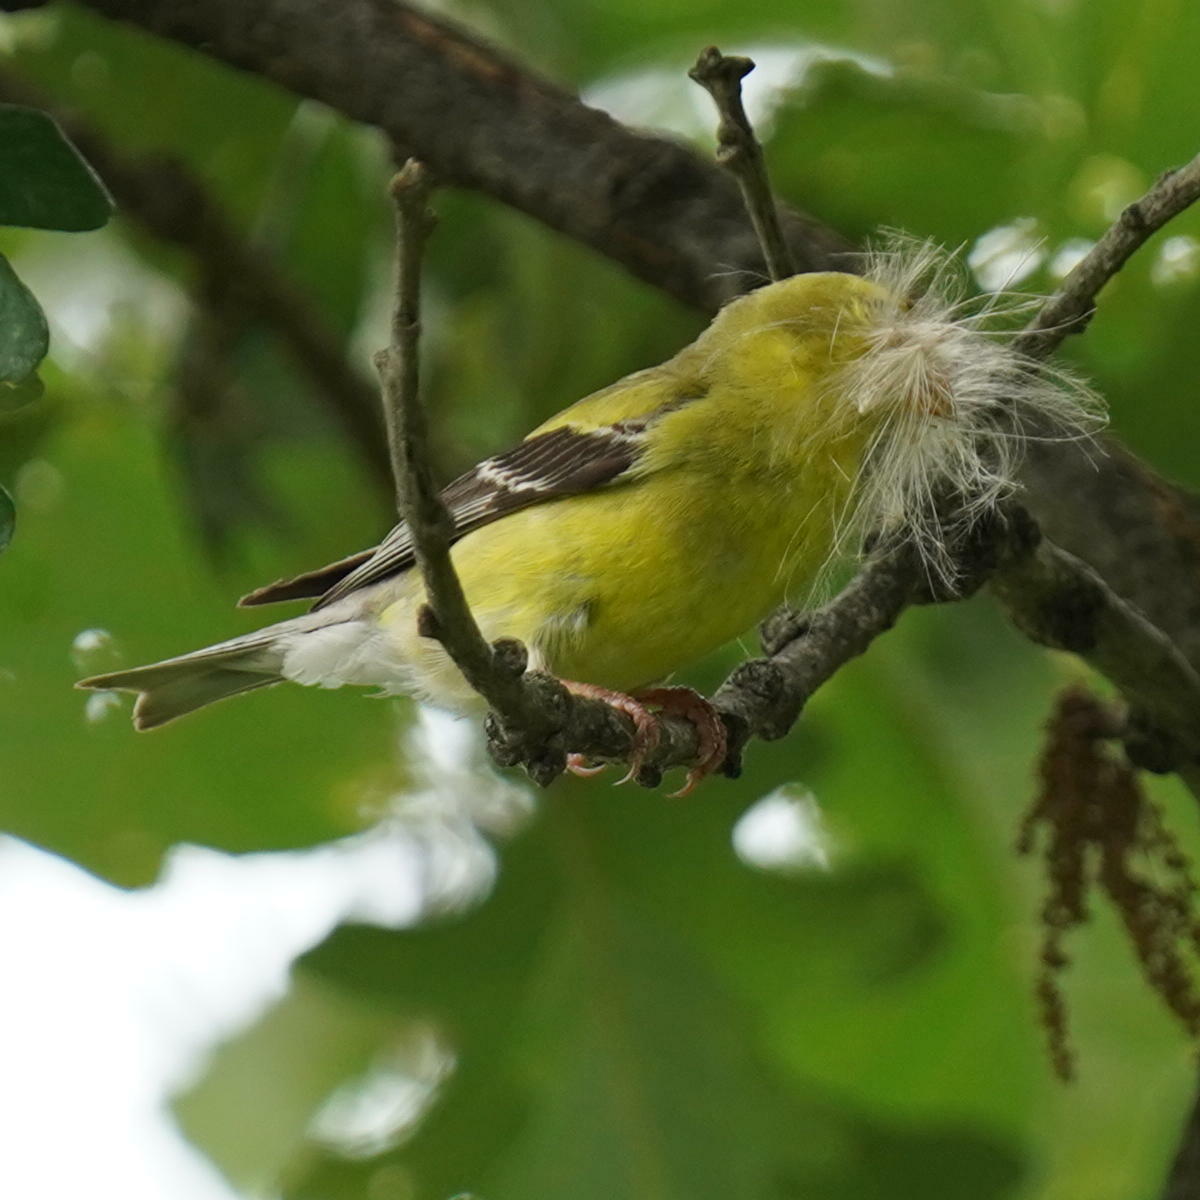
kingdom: Animalia
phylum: Chordata
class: Aves
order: Passeriformes
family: Fringillidae
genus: Spinus
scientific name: Spinus tristis
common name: American goldfinch
